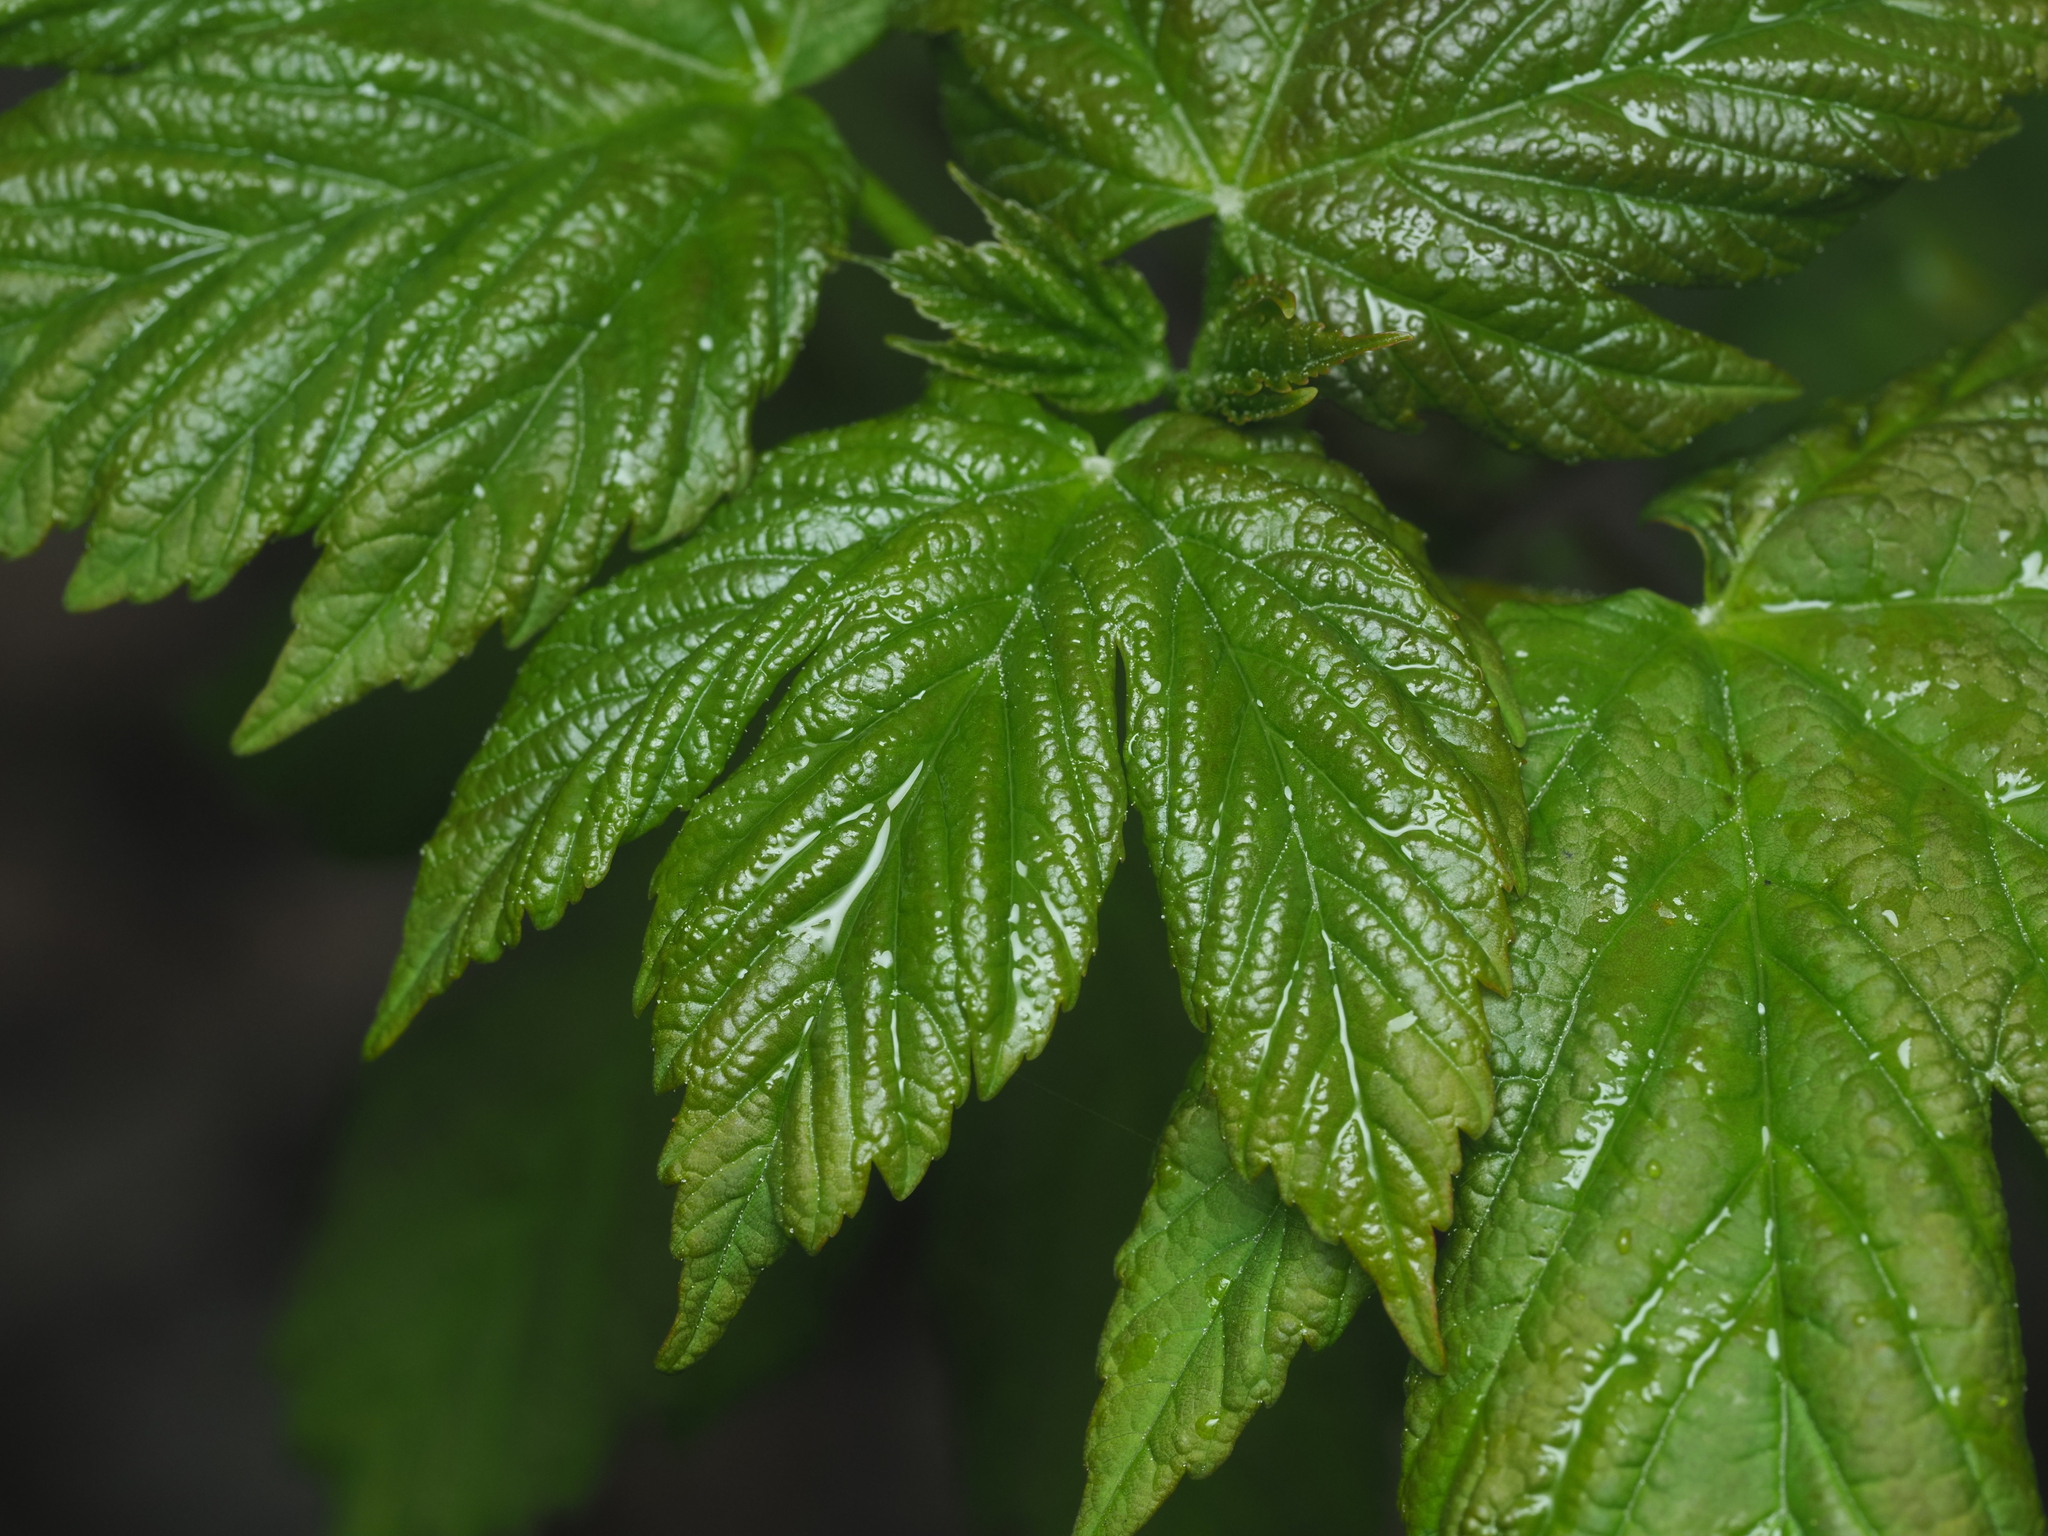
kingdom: Plantae
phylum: Tracheophyta
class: Magnoliopsida
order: Sapindales
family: Sapindaceae
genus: Acer
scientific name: Acer pseudoplatanus
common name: Sycamore
